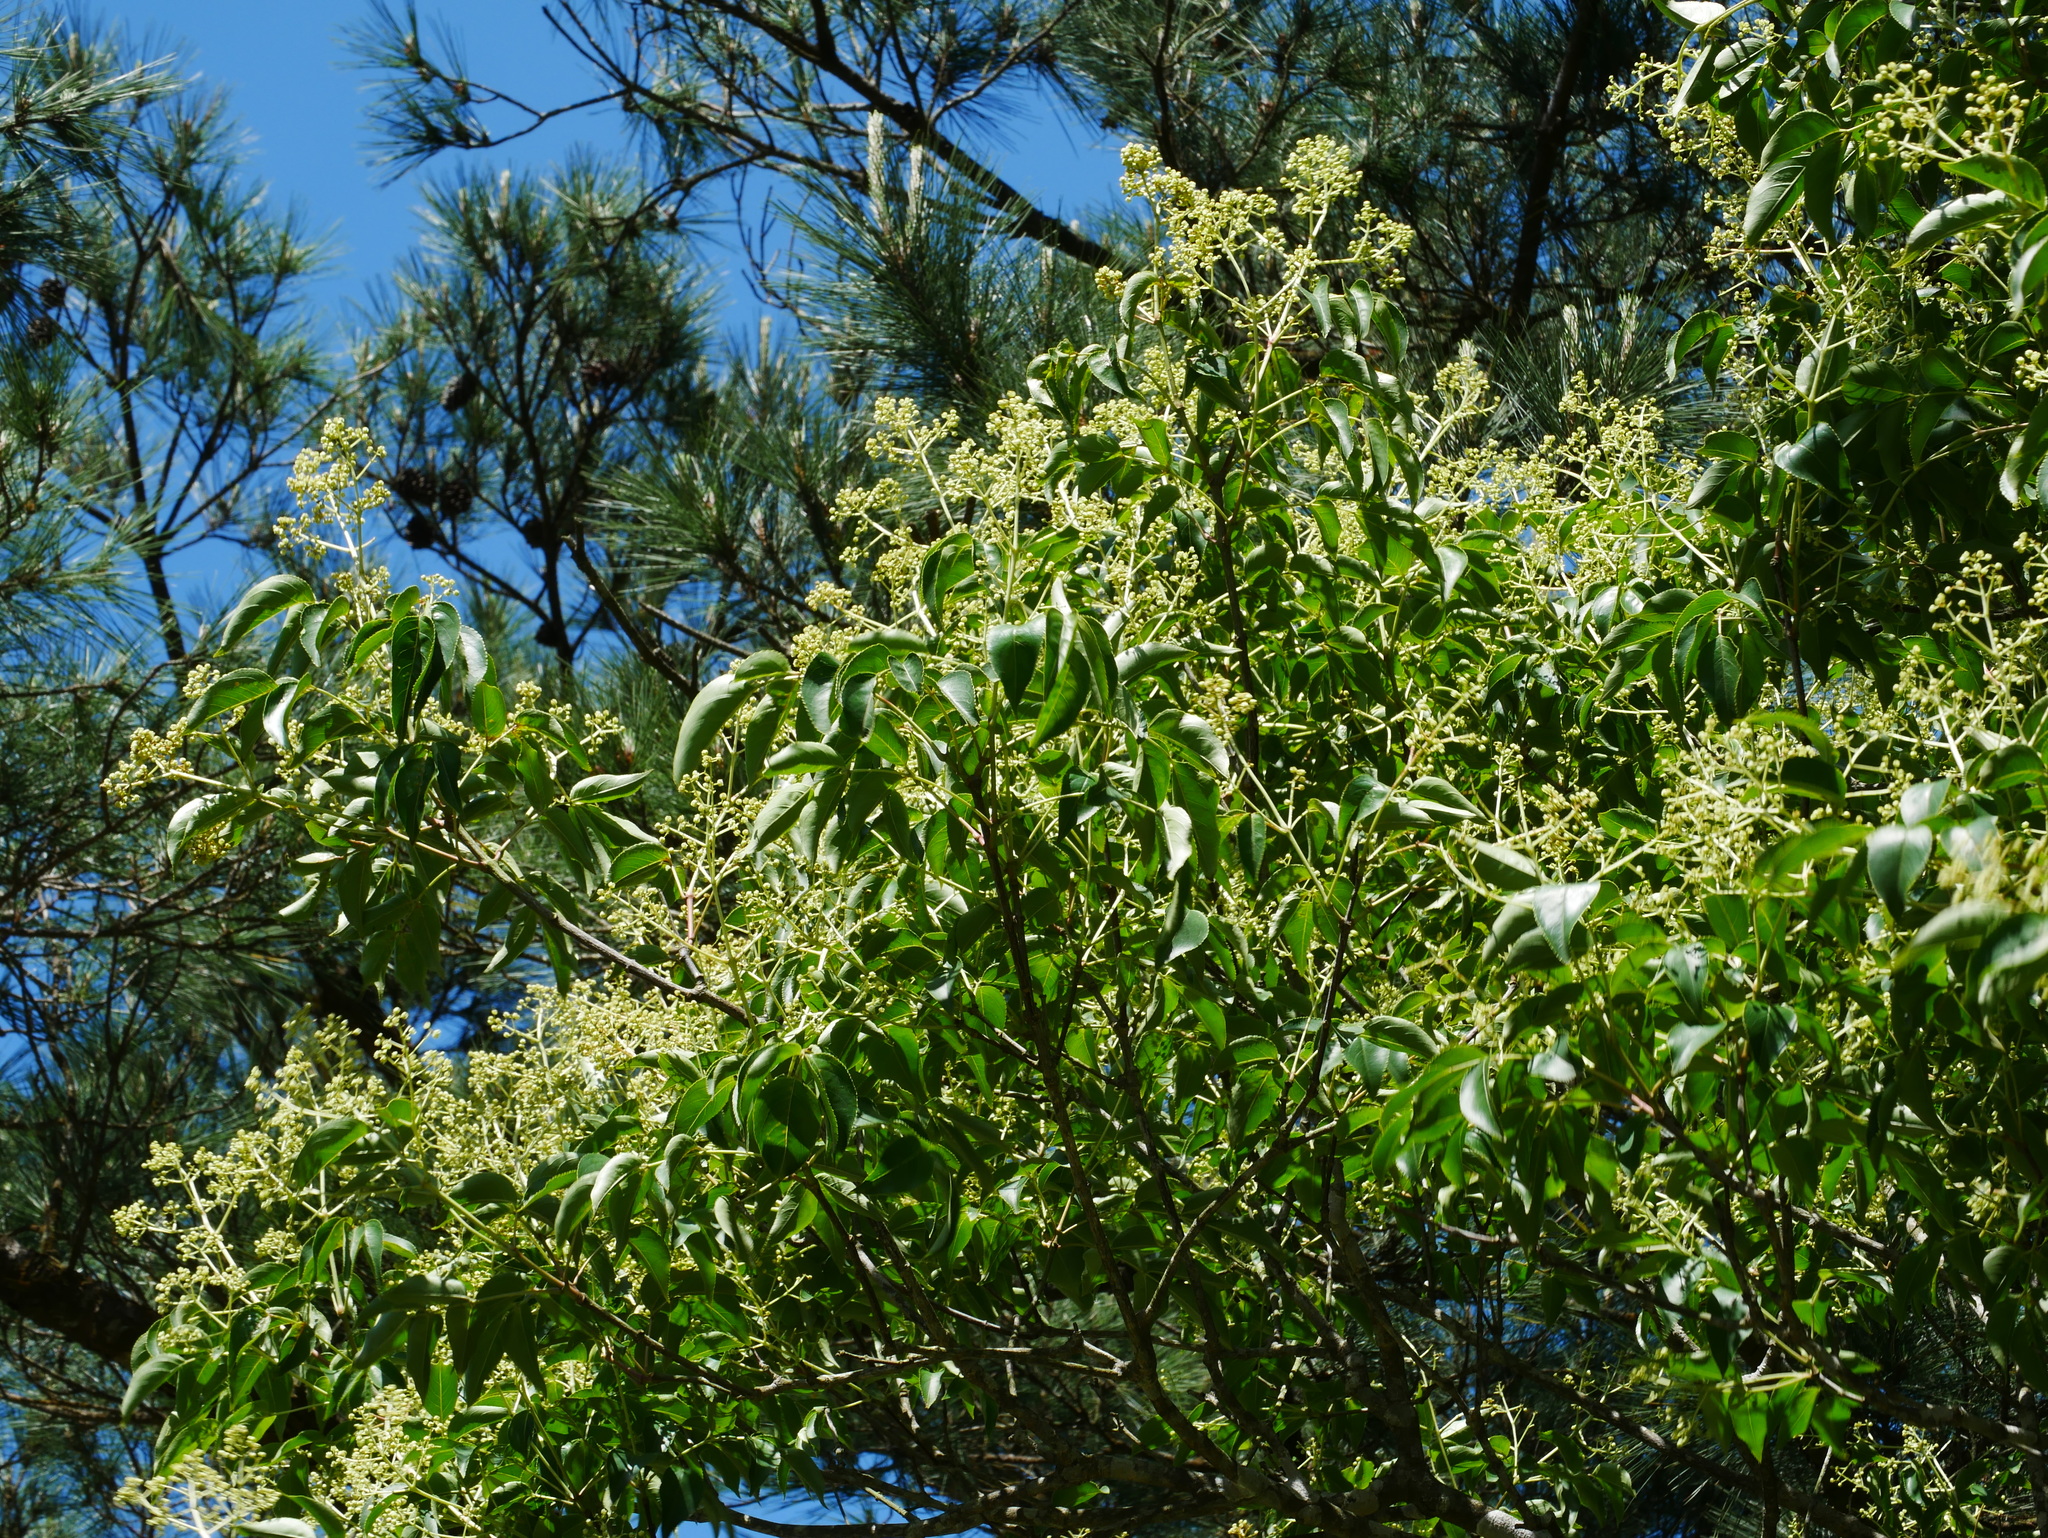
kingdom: Plantae
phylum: Tracheophyta
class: Magnoliopsida
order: Crossosomatales
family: Staphyleaceae
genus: Staphylea
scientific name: Staphylea japonica
